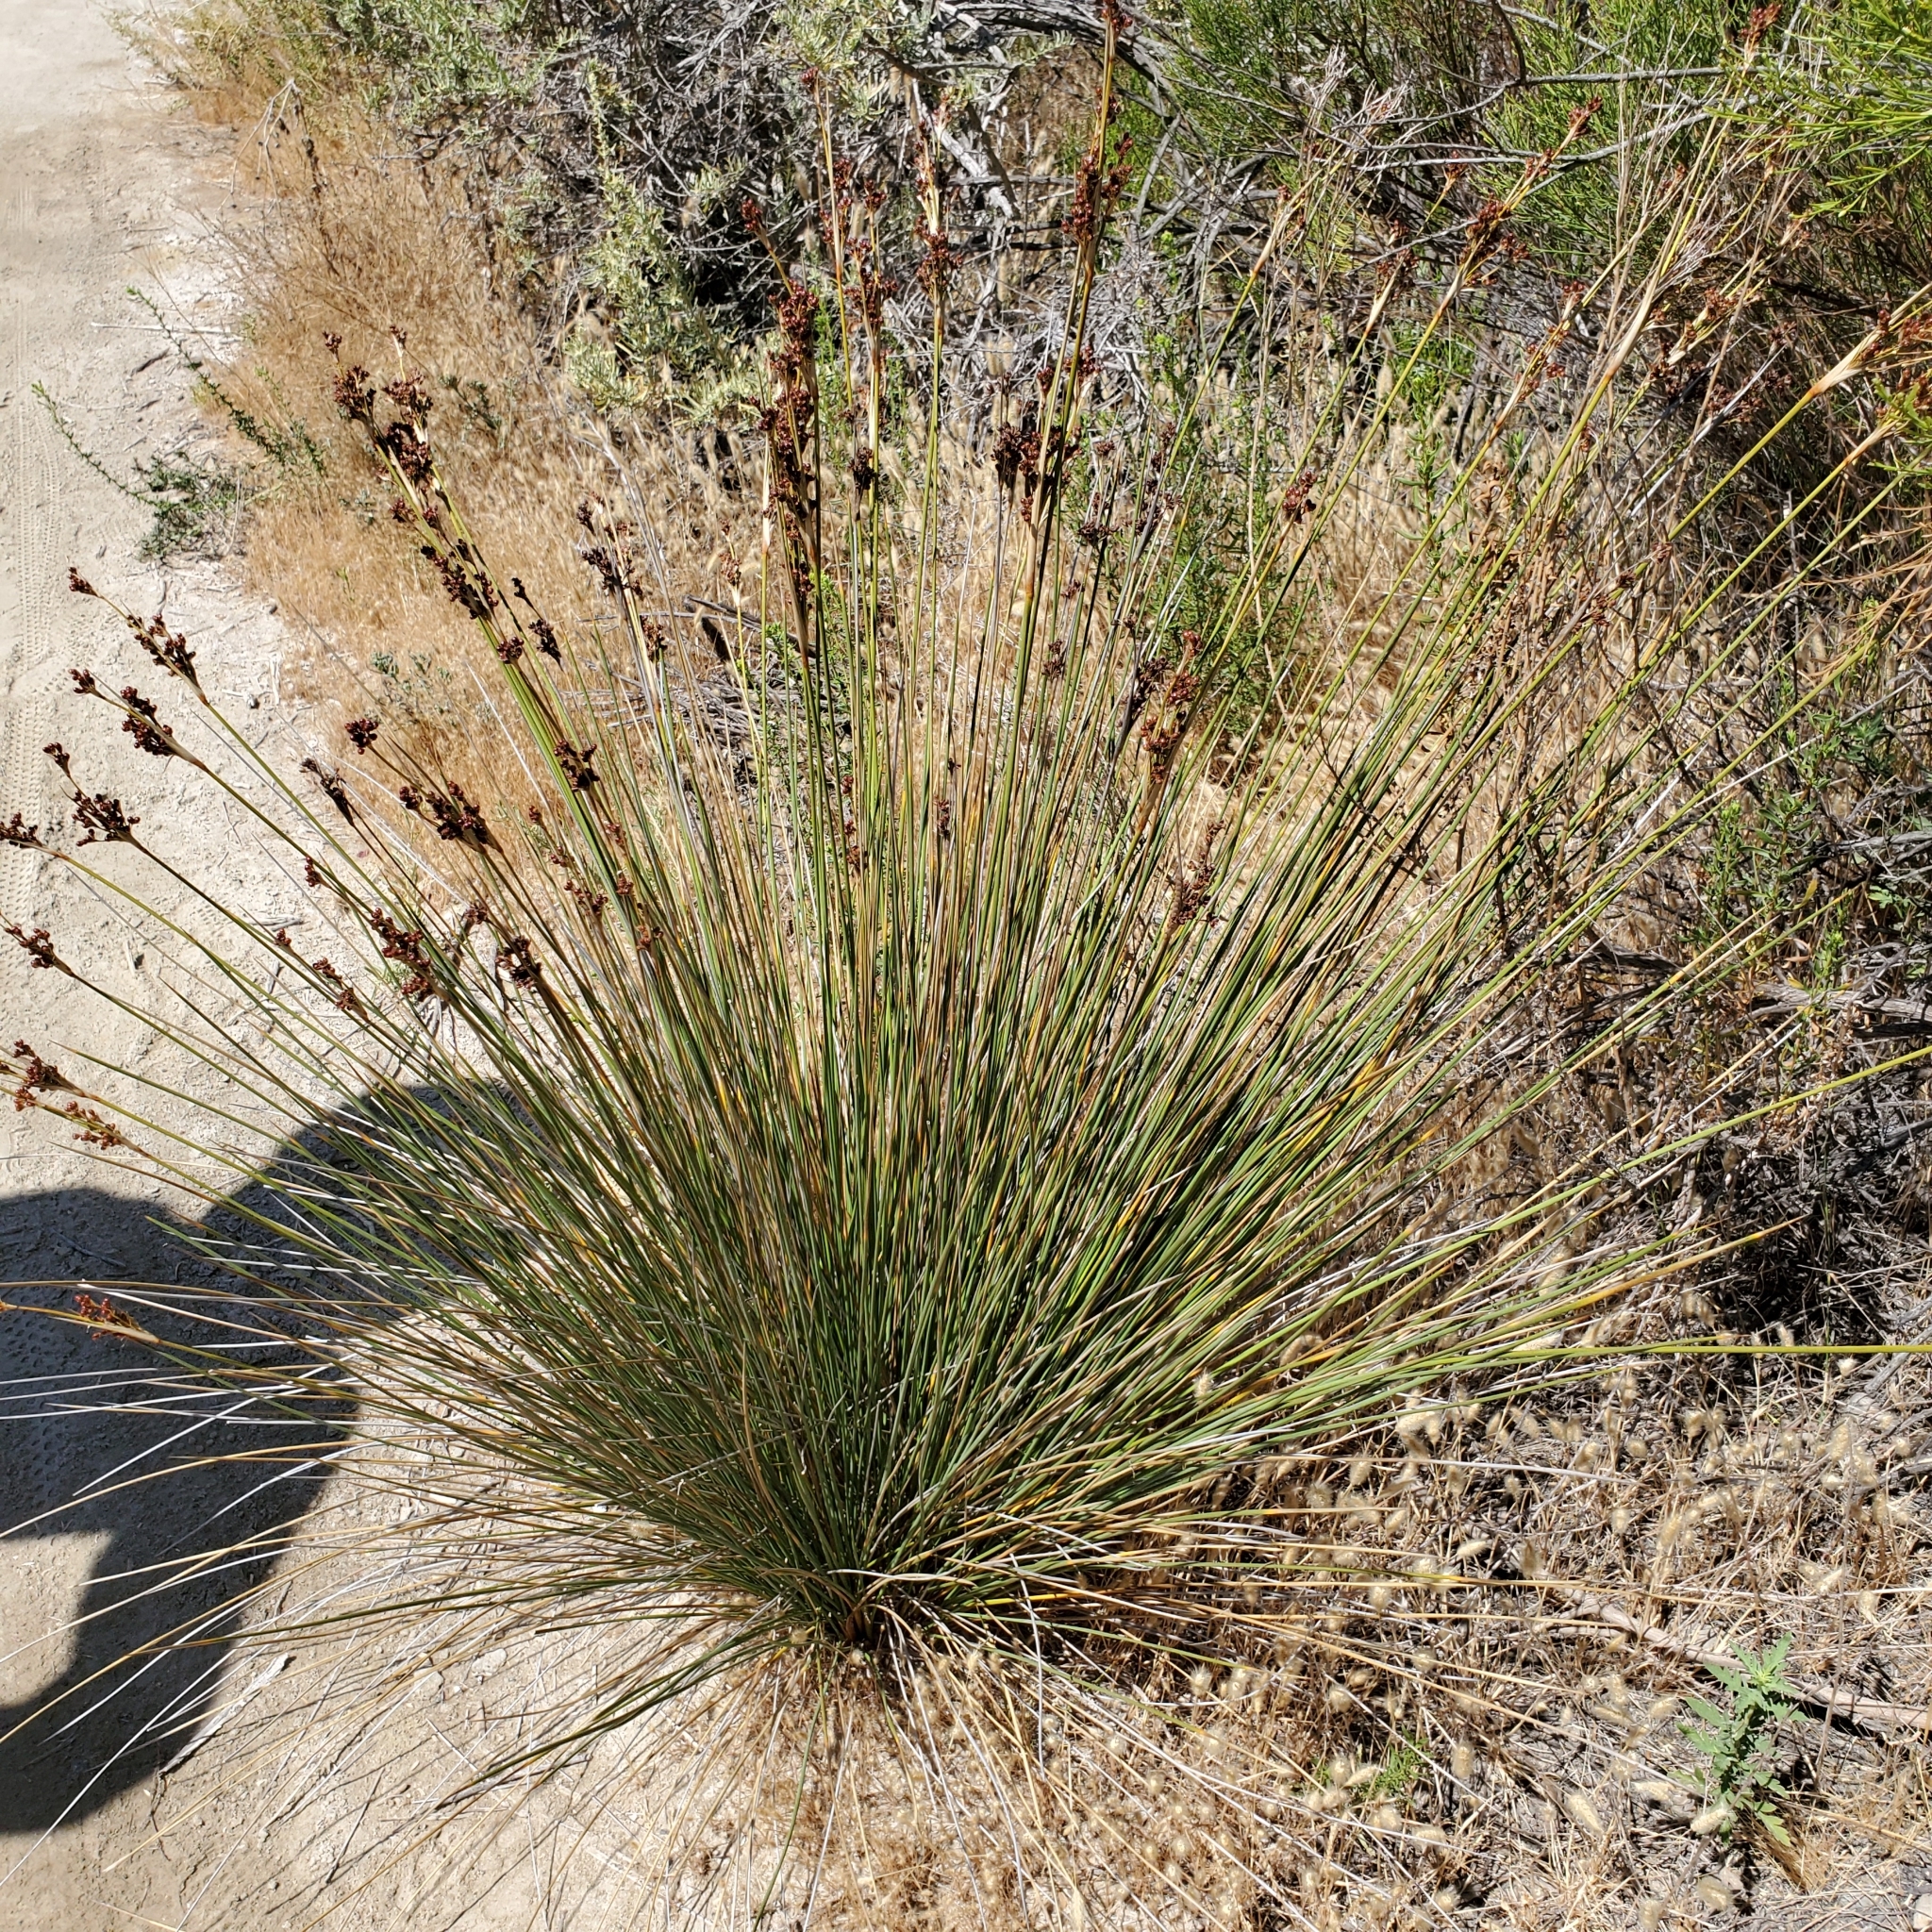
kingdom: Plantae
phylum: Tracheophyta
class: Liliopsida
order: Poales
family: Juncaceae
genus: Juncus
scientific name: Juncus acutus
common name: Sharp rush
